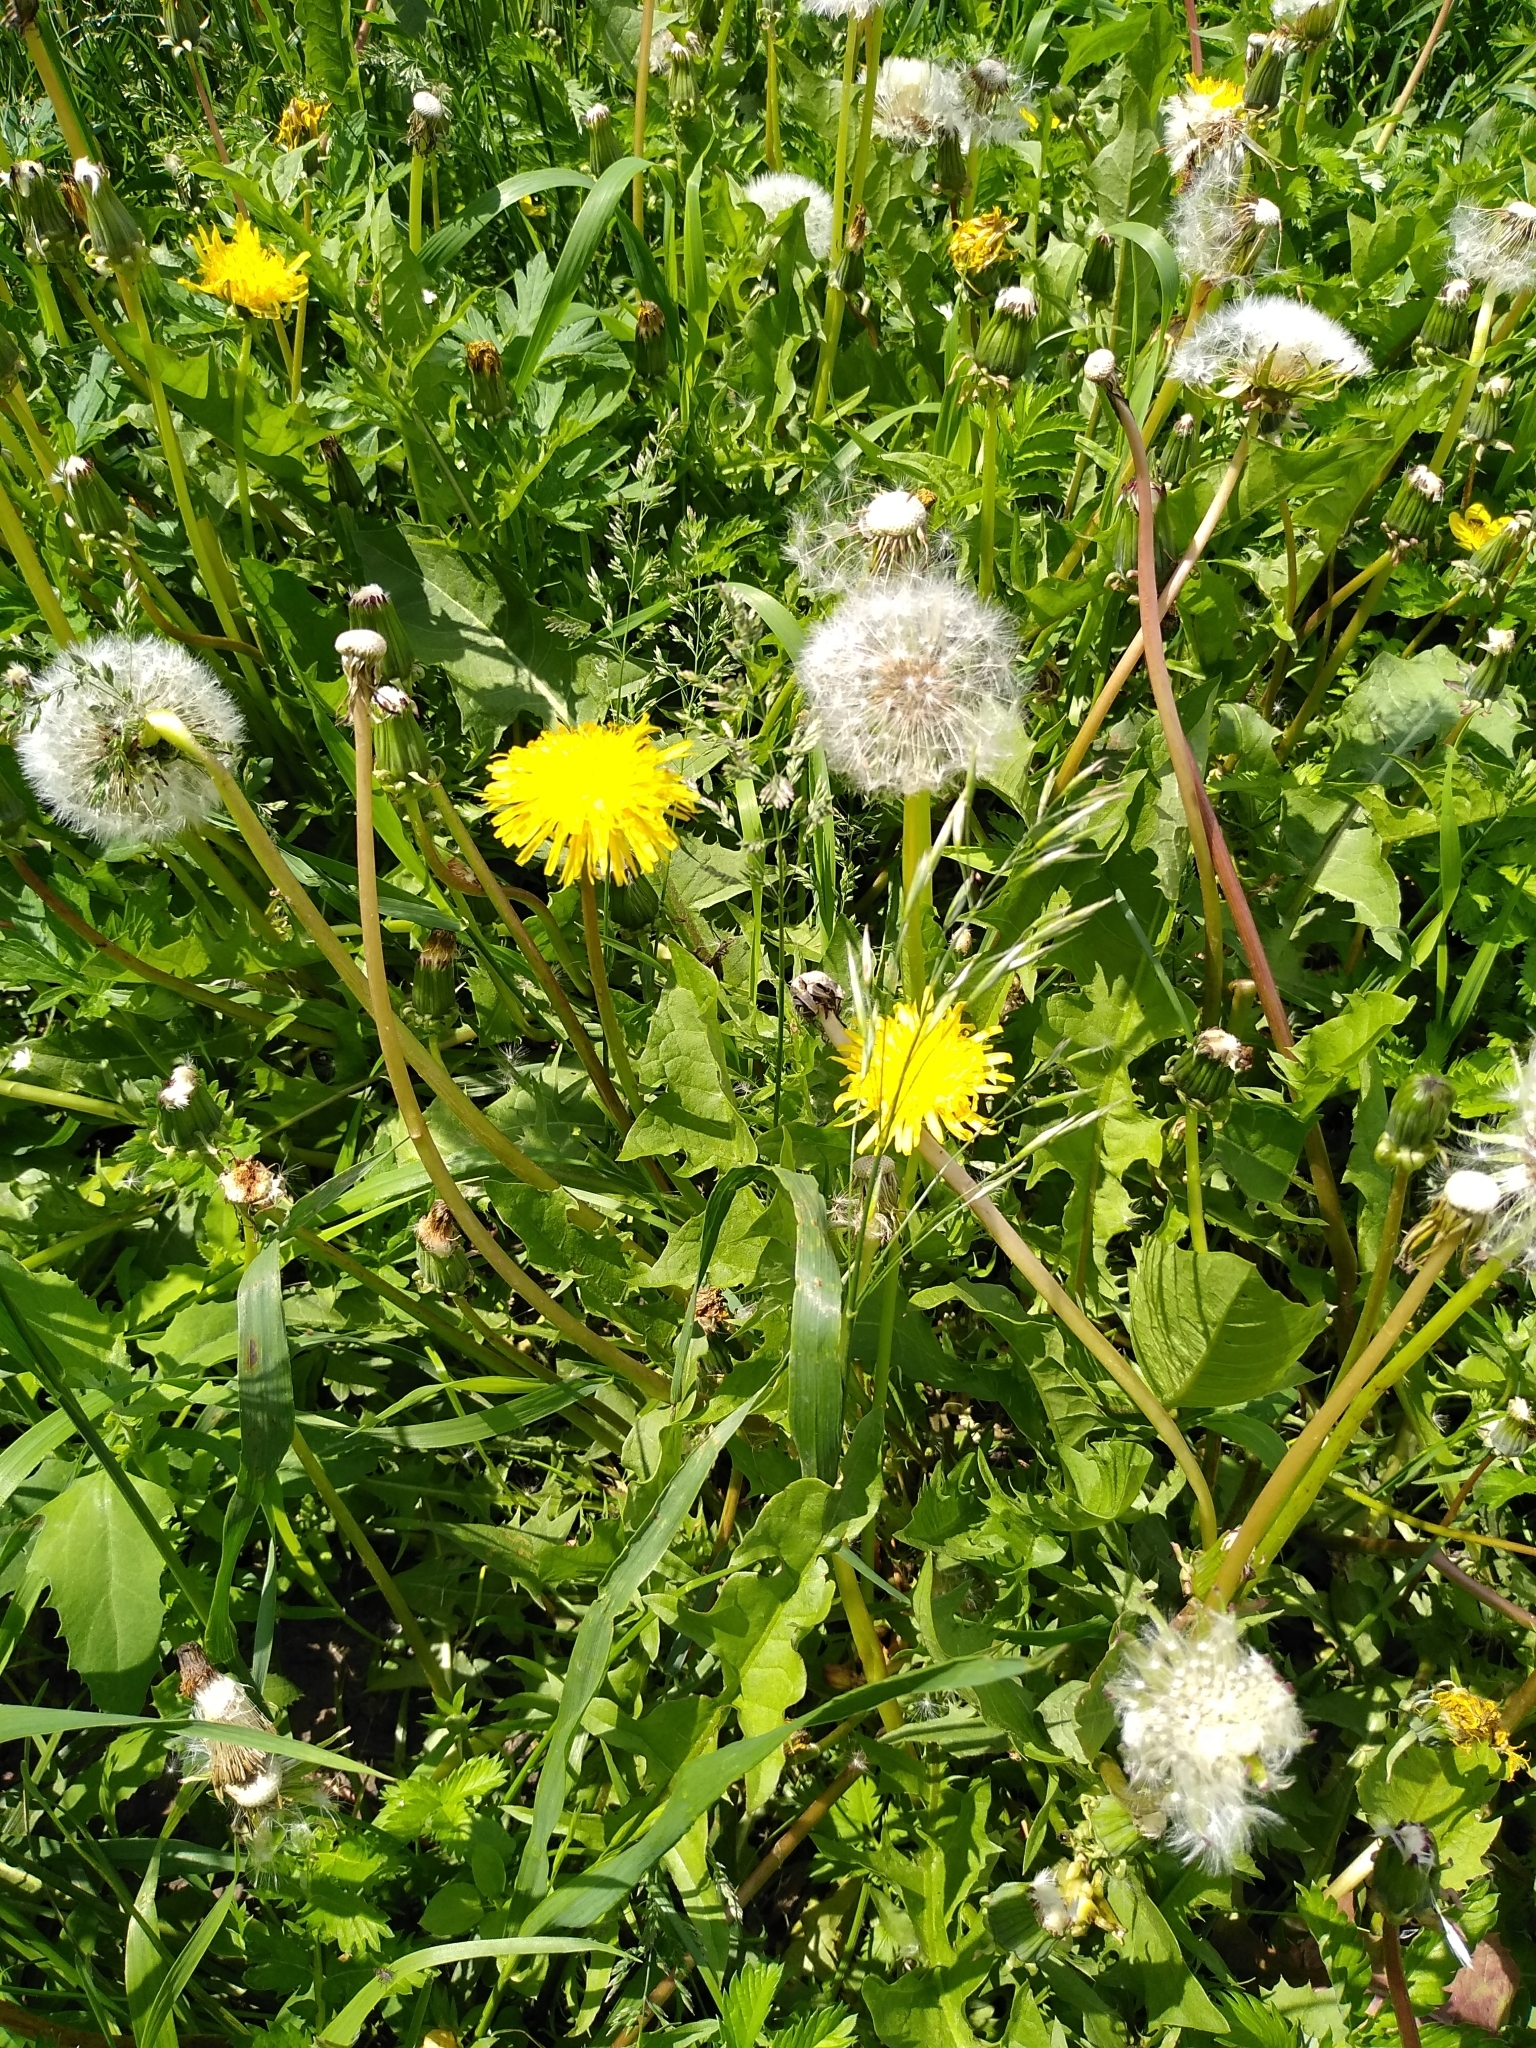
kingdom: Plantae
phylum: Tracheophyta
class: Magnoliopsida
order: Asterales
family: Asteraceae
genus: Taraxacum
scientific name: Taraxacum officinale
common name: Common dandelion
